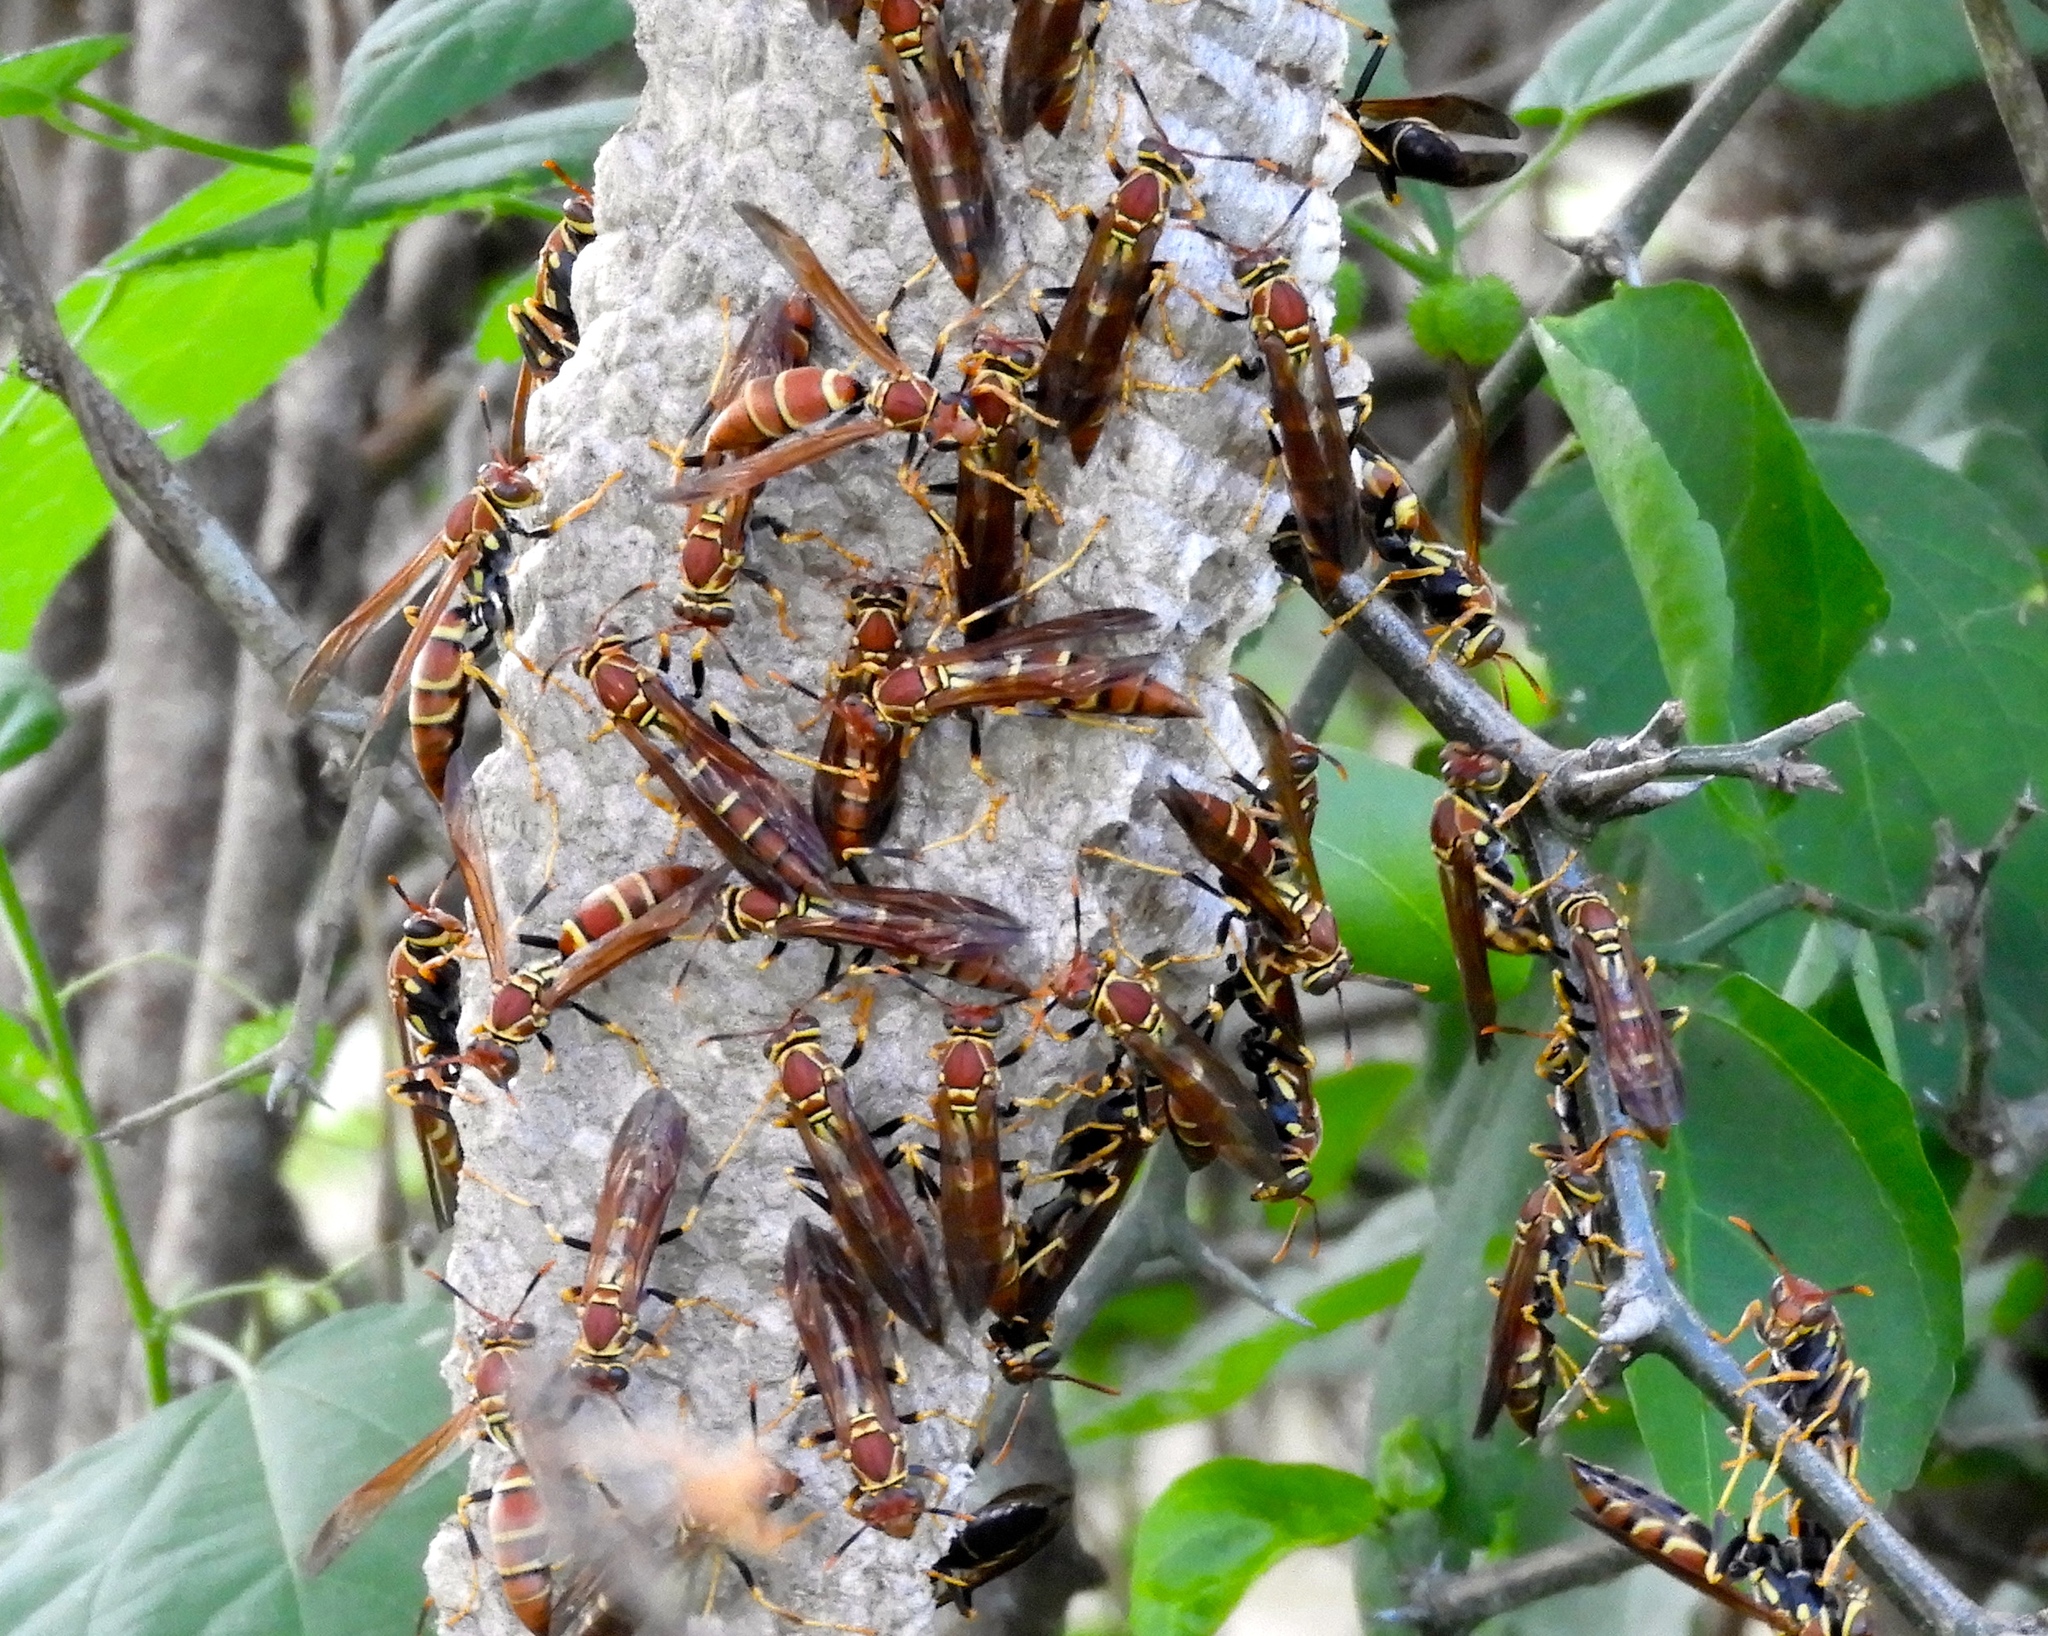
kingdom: Animalia
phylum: Arthropoda
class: Insecta
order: Hymenoptera
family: Eumenidae
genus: Polistes
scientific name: Polistes instabilis
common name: Unstable paper wasp
